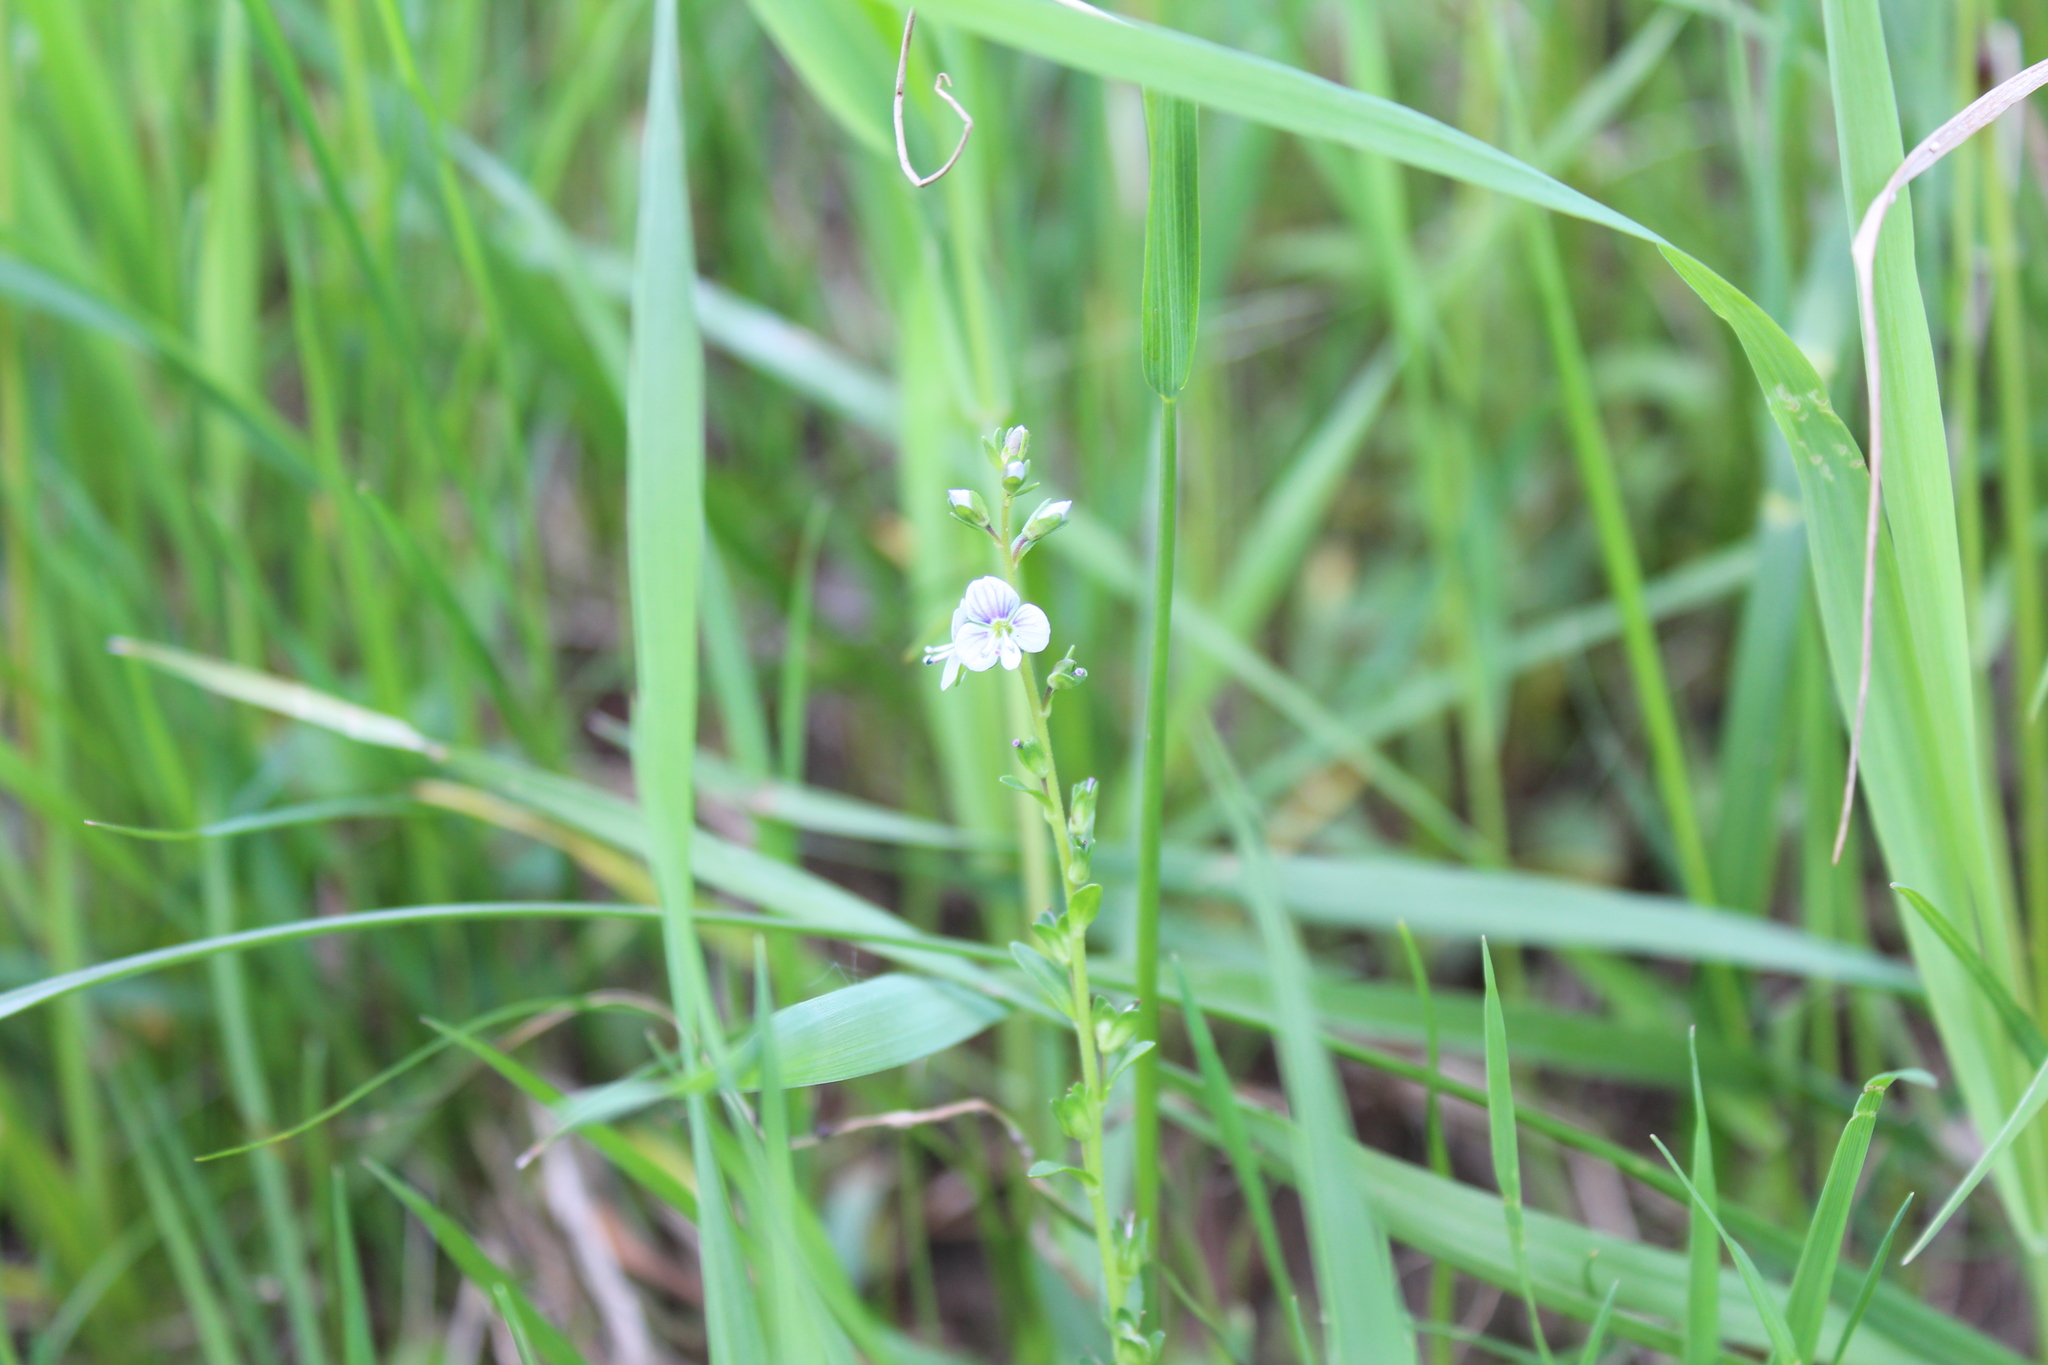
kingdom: Plantae
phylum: Tracheophyta
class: Magnoliopsida
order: Lamiales
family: Plantaginaceae
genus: Veronica
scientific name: Veronica serpyllifolia
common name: Thyme-leaved speedwell
